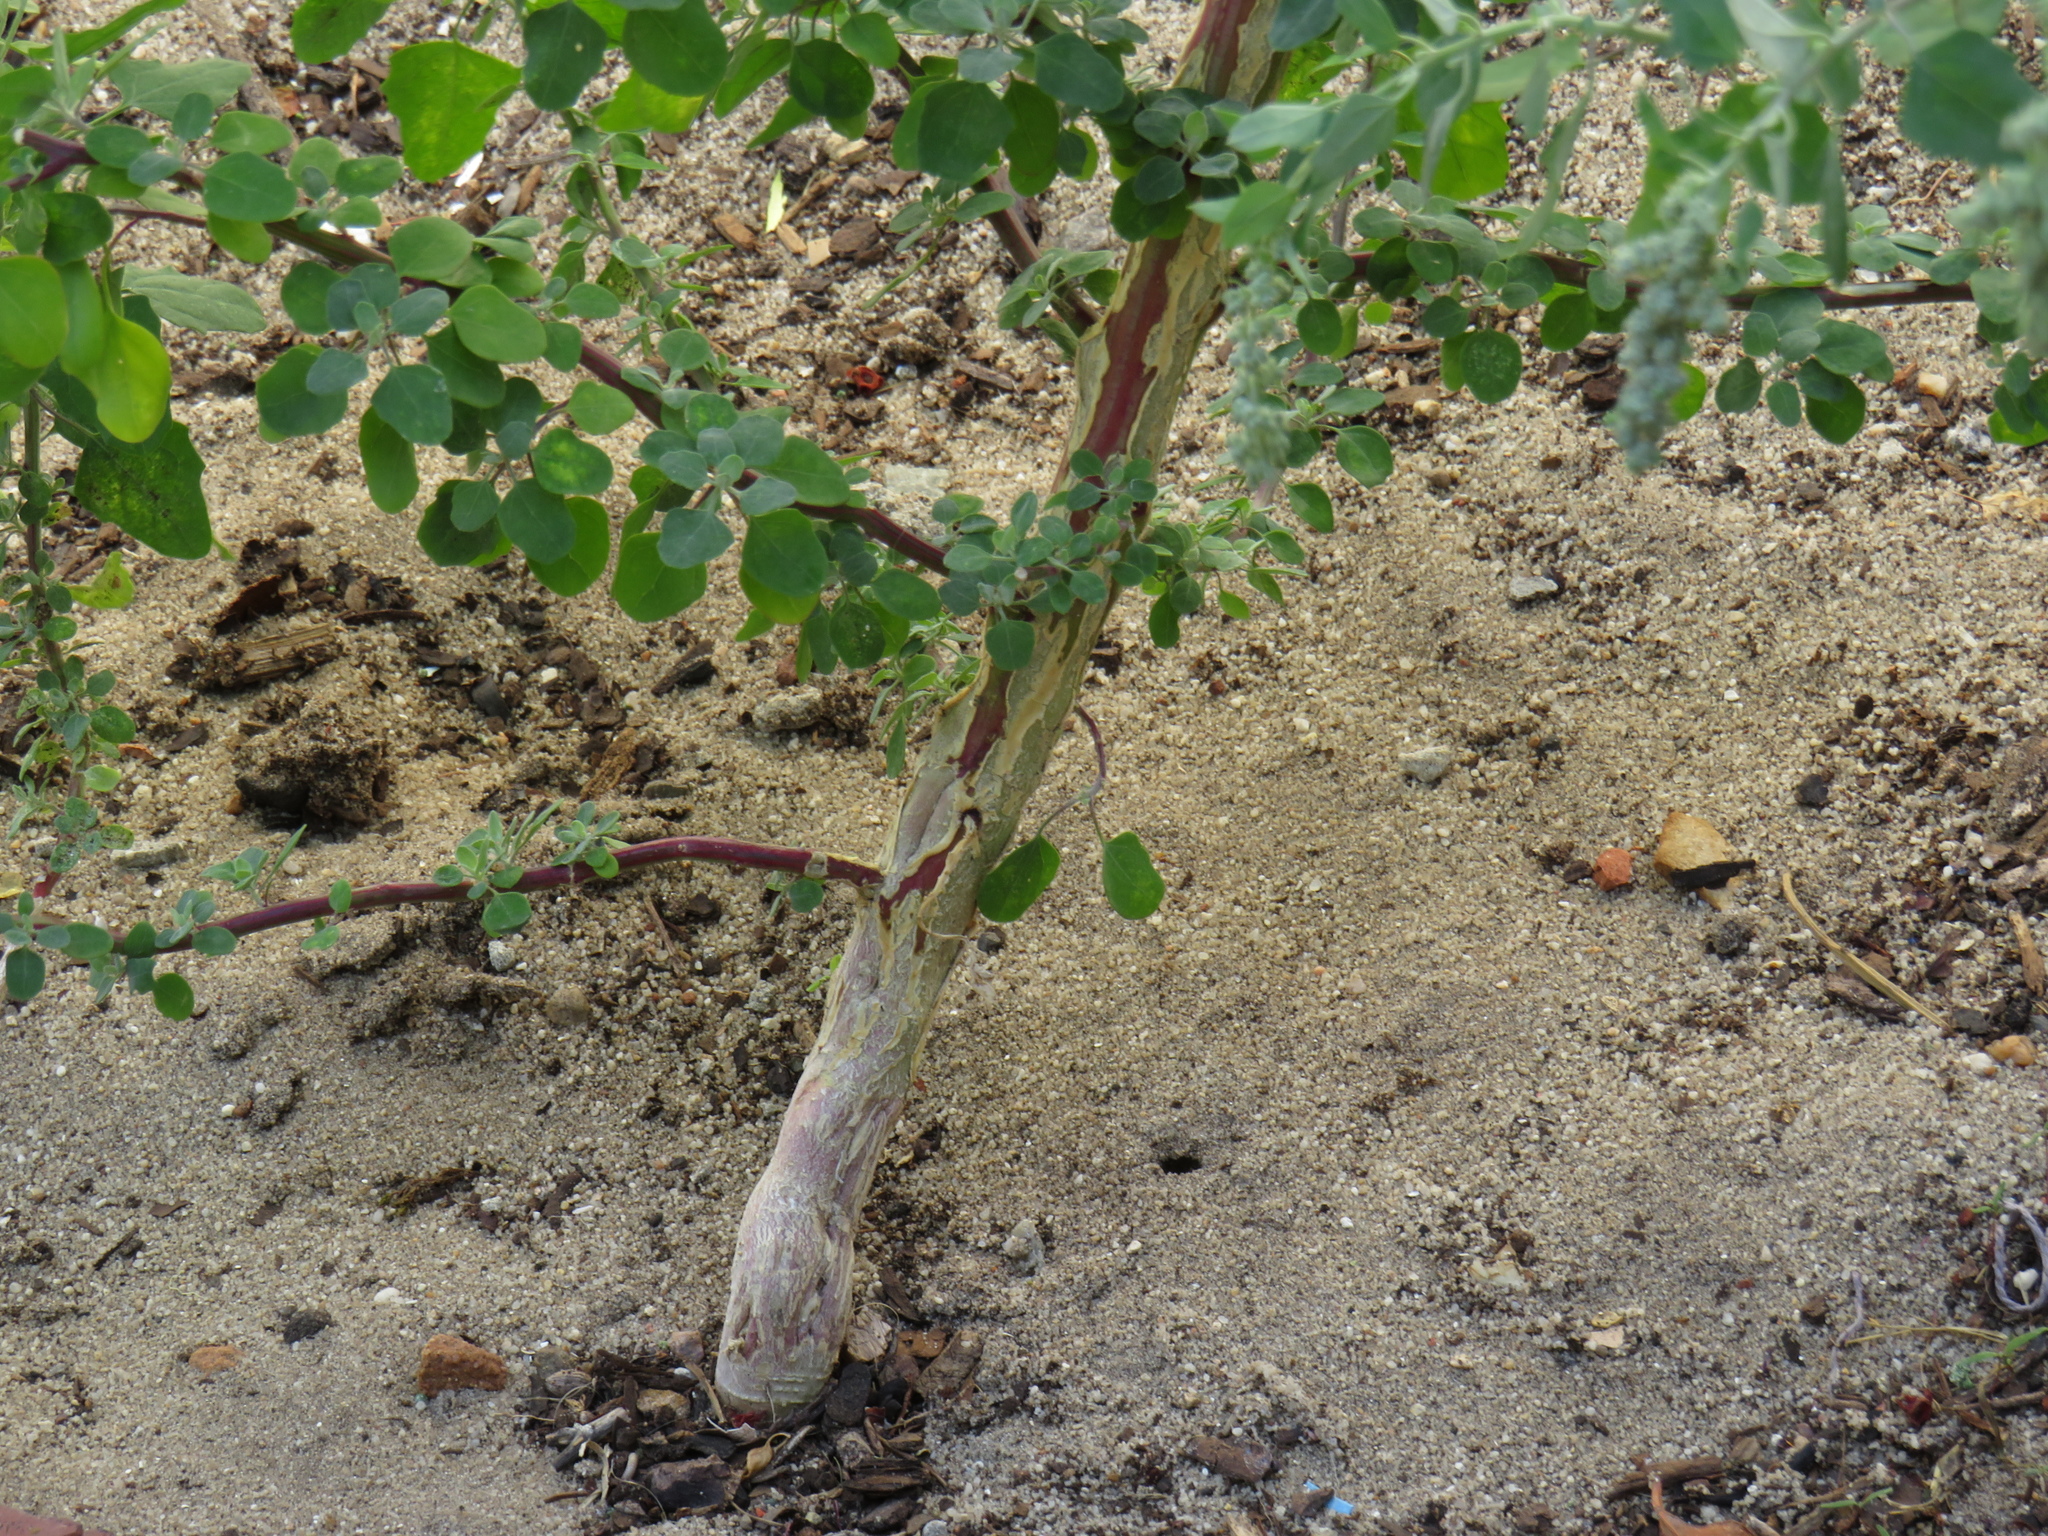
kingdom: Plantae
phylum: Tracheophyta
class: Magnoliopsida
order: Caryophyllales
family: Amaranthaceae
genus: Chenopodium
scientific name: Chenopodium album
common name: Fat-hen
